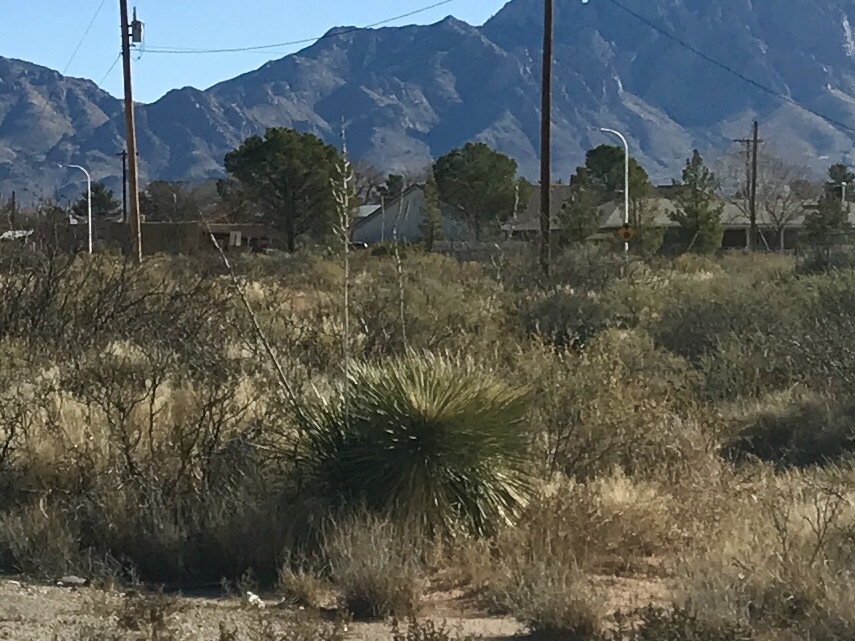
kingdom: Plantae
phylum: Tracheophyta
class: Liliopsida
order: Asparagales
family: Asparagaceae
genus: Yucca
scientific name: Yucca elata
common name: Palmella
